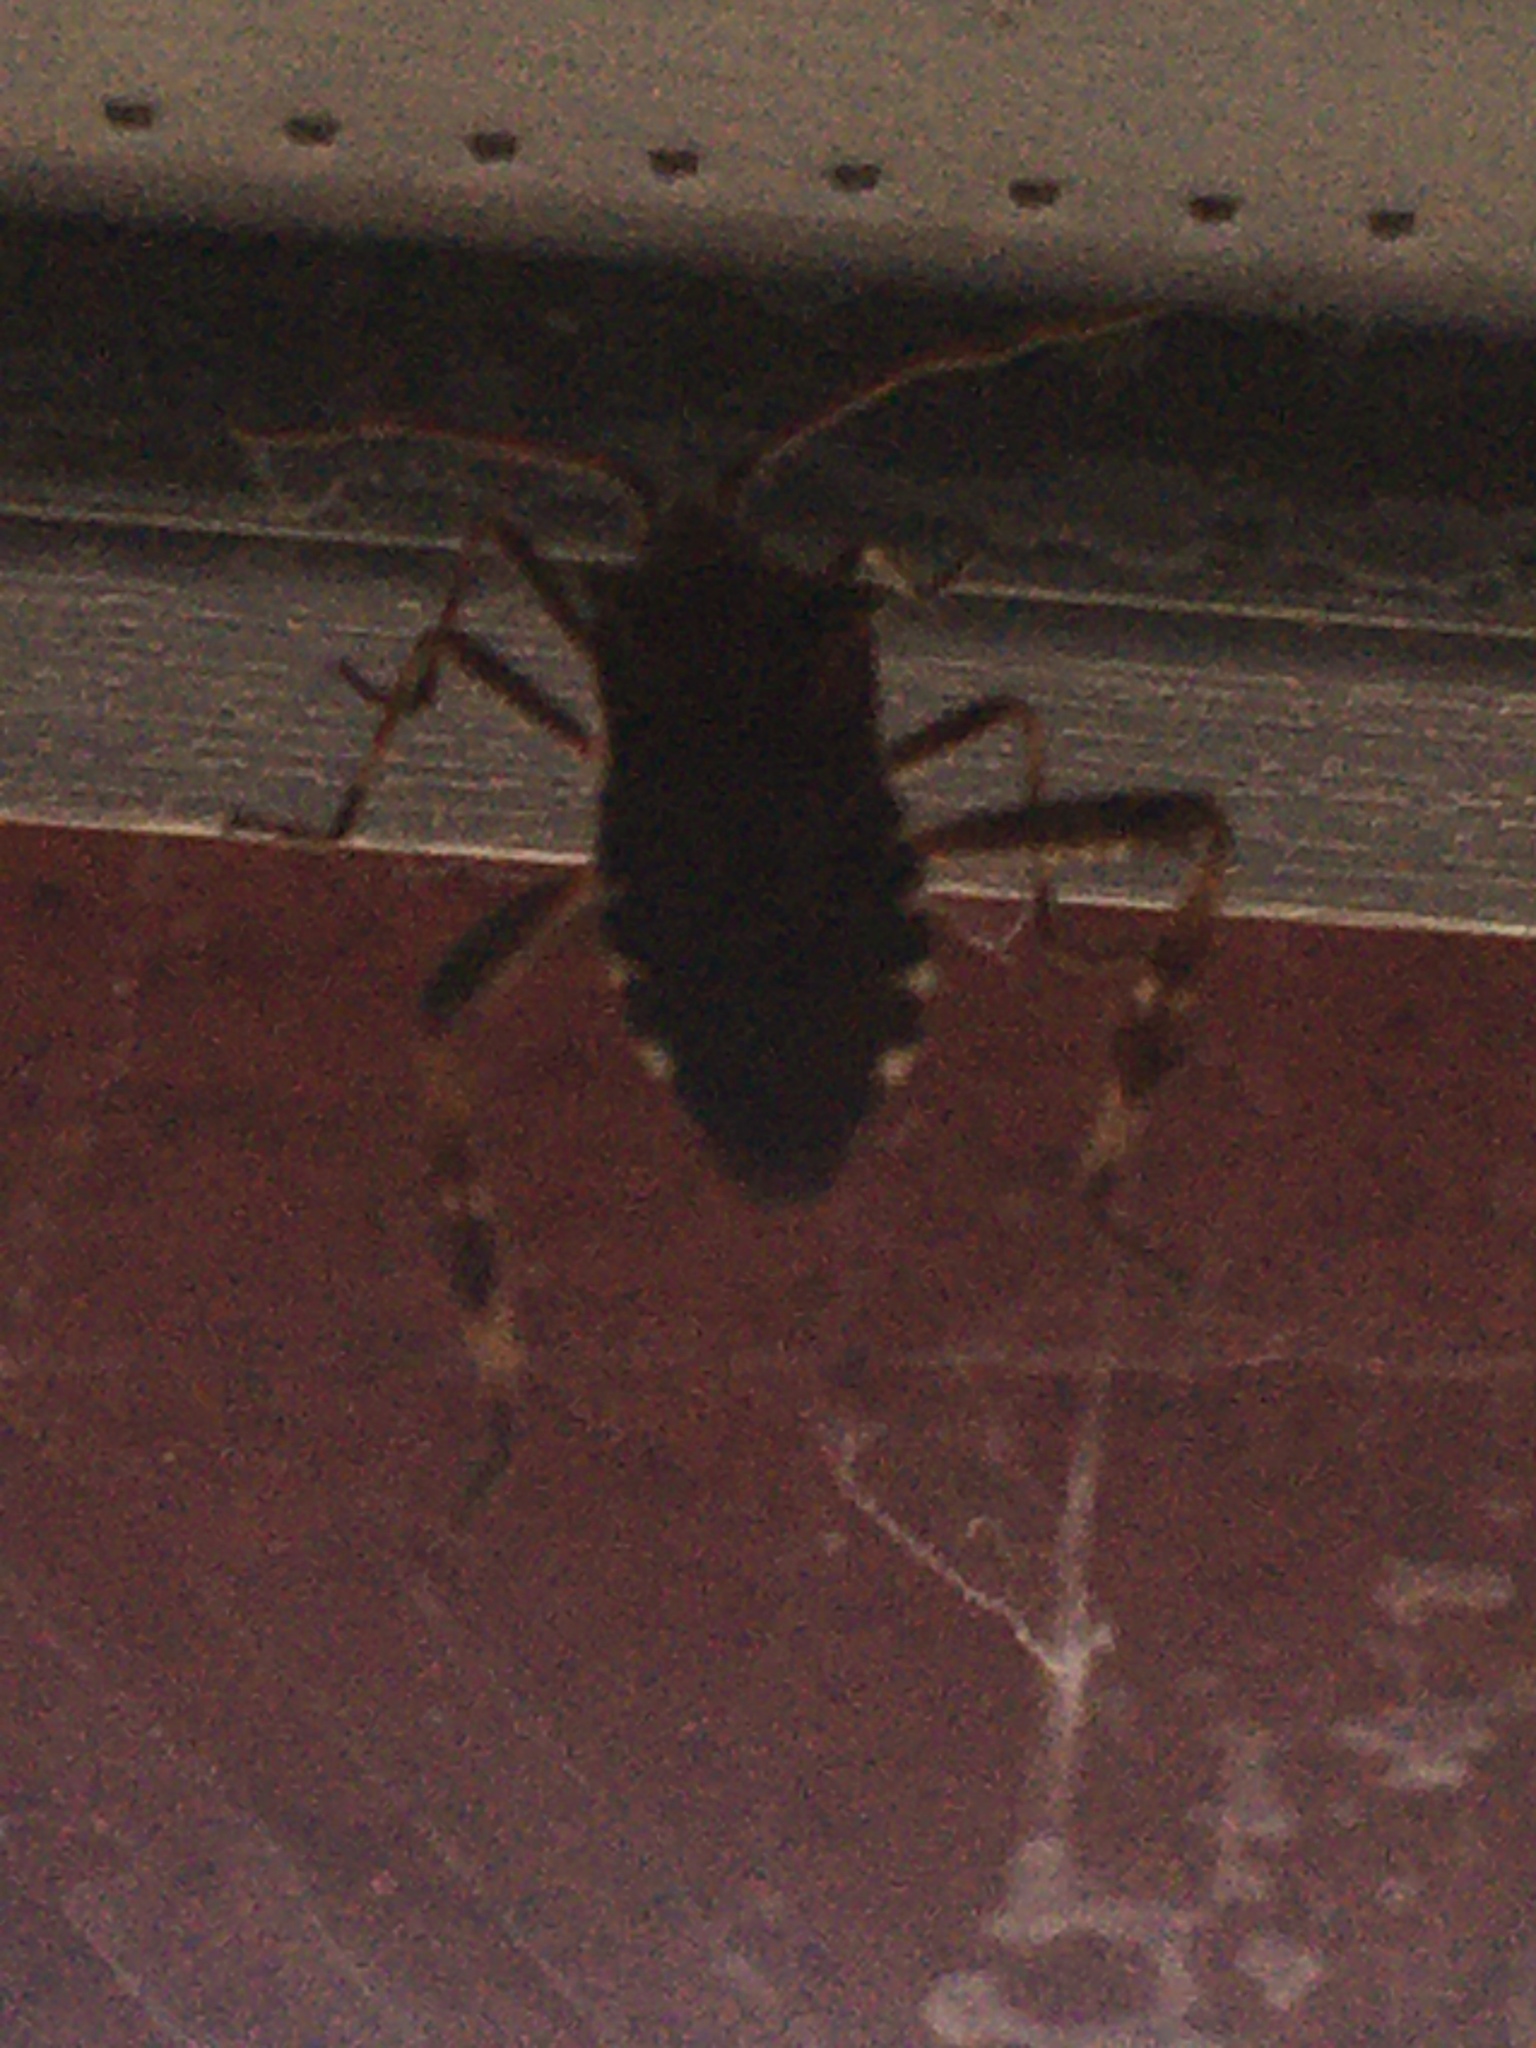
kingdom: Animalia
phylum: Arthropoda
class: Insecta
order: Hemiptera
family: Coreidae
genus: Leptoglossus
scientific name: Leptoglossus occidentalis
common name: Western conifer-seed bug
